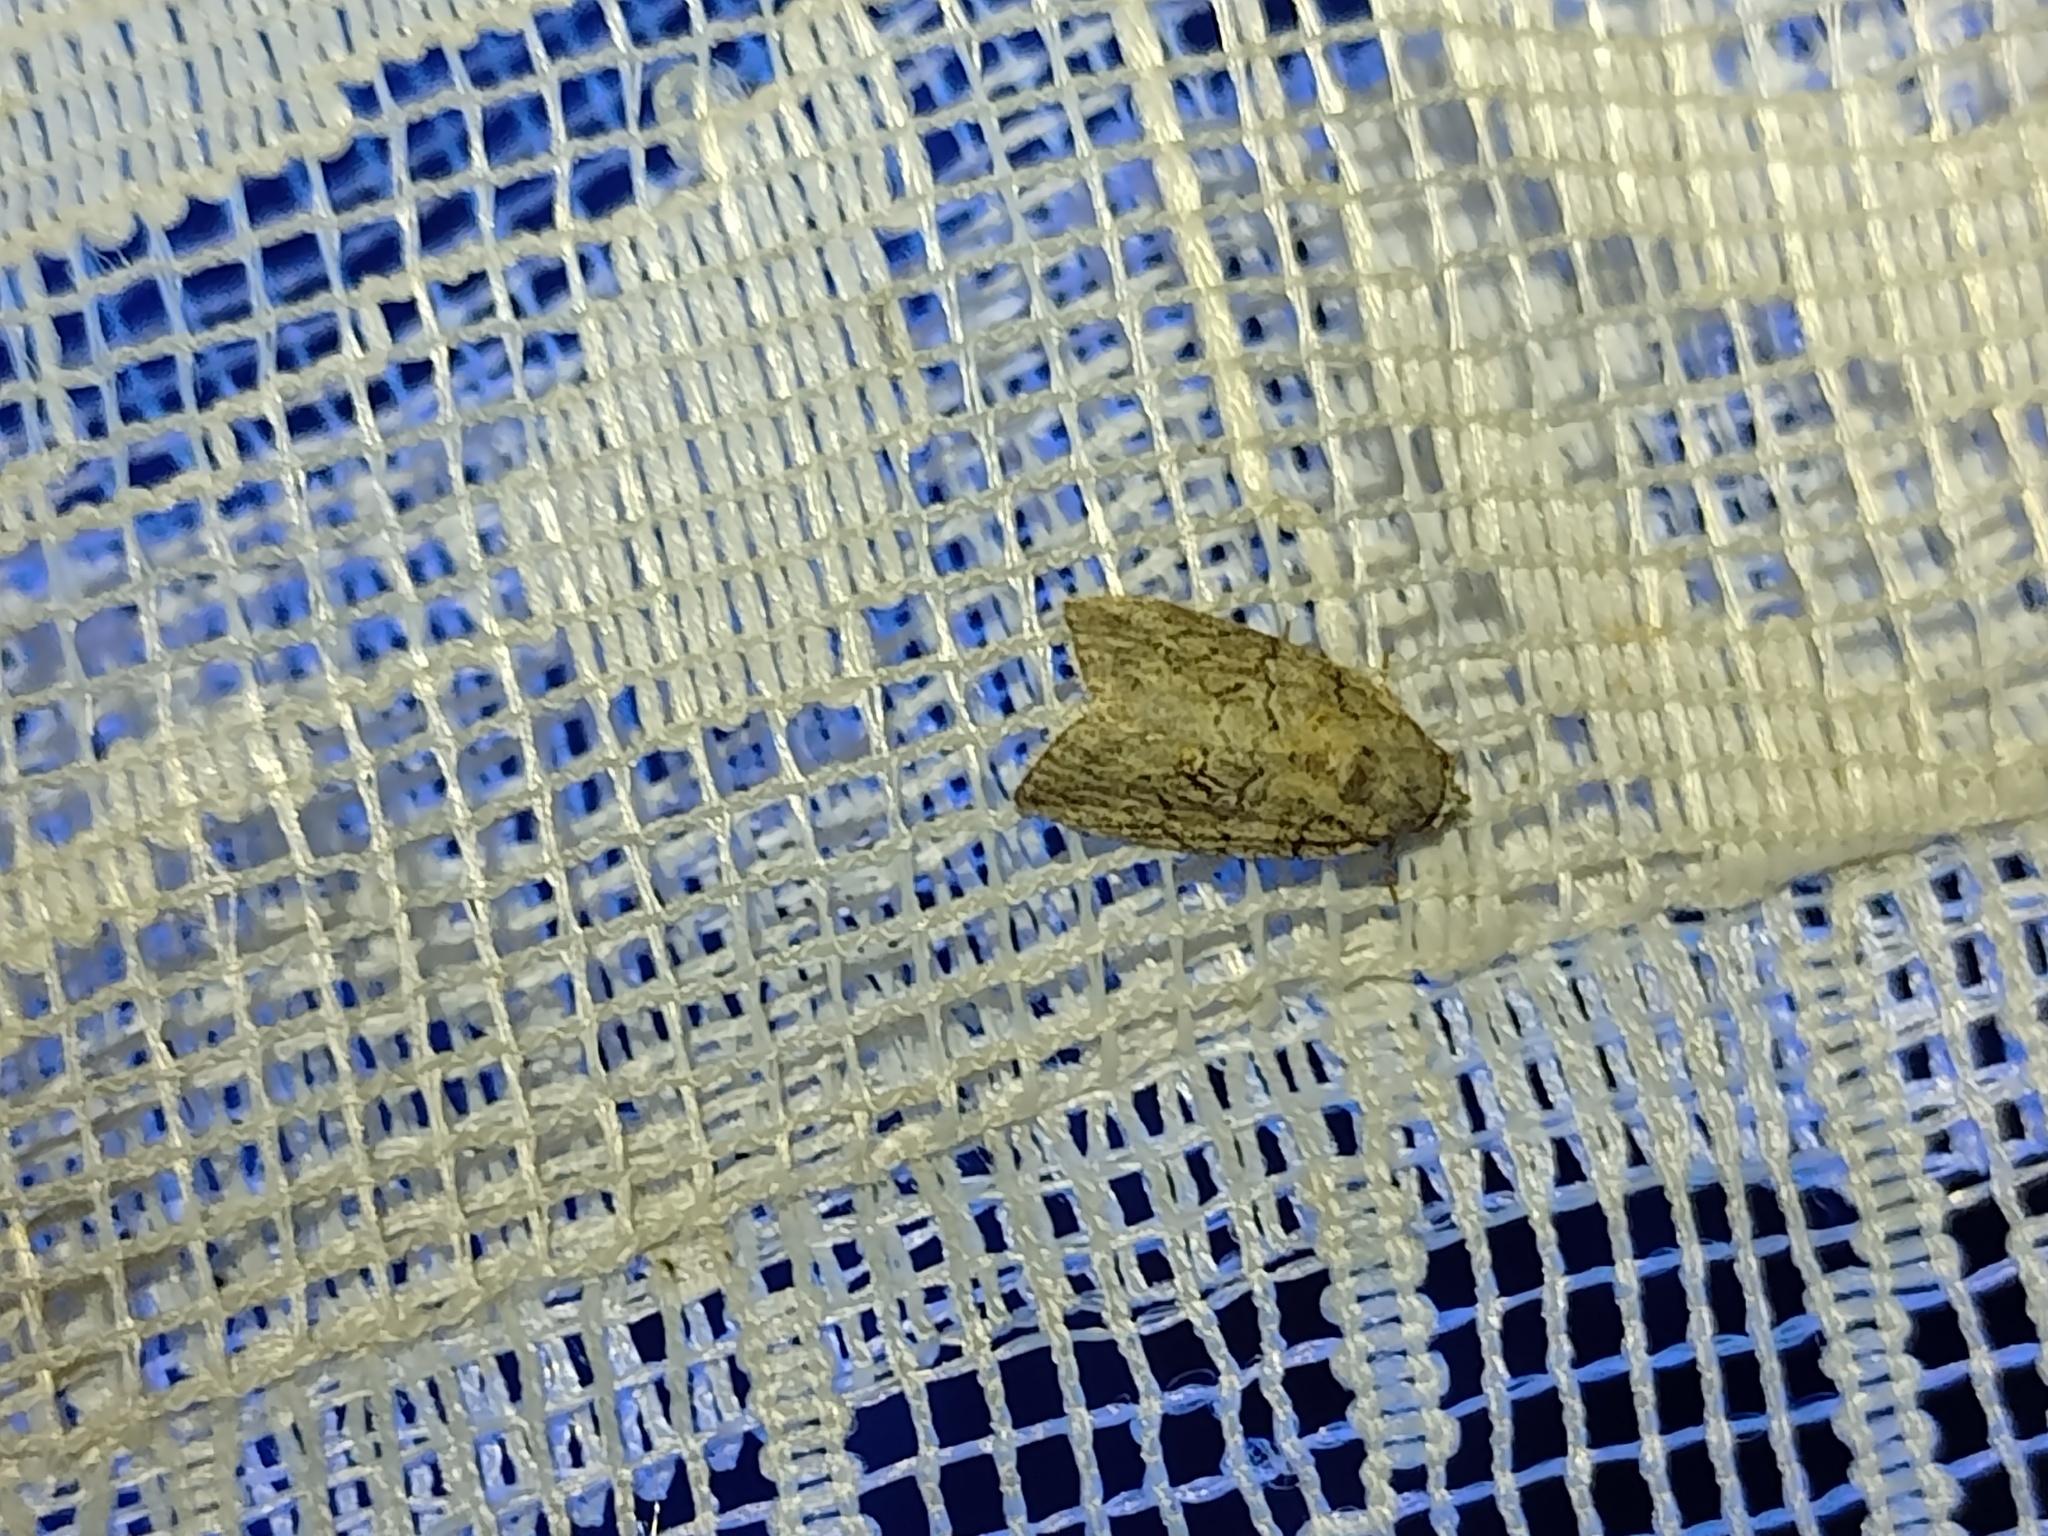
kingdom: Animalia
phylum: Arthropoda
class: Insecta
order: Lepidoptera
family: Nolidae
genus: Garella
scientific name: Garella nilotica
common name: Black-olive caterpillar moth
